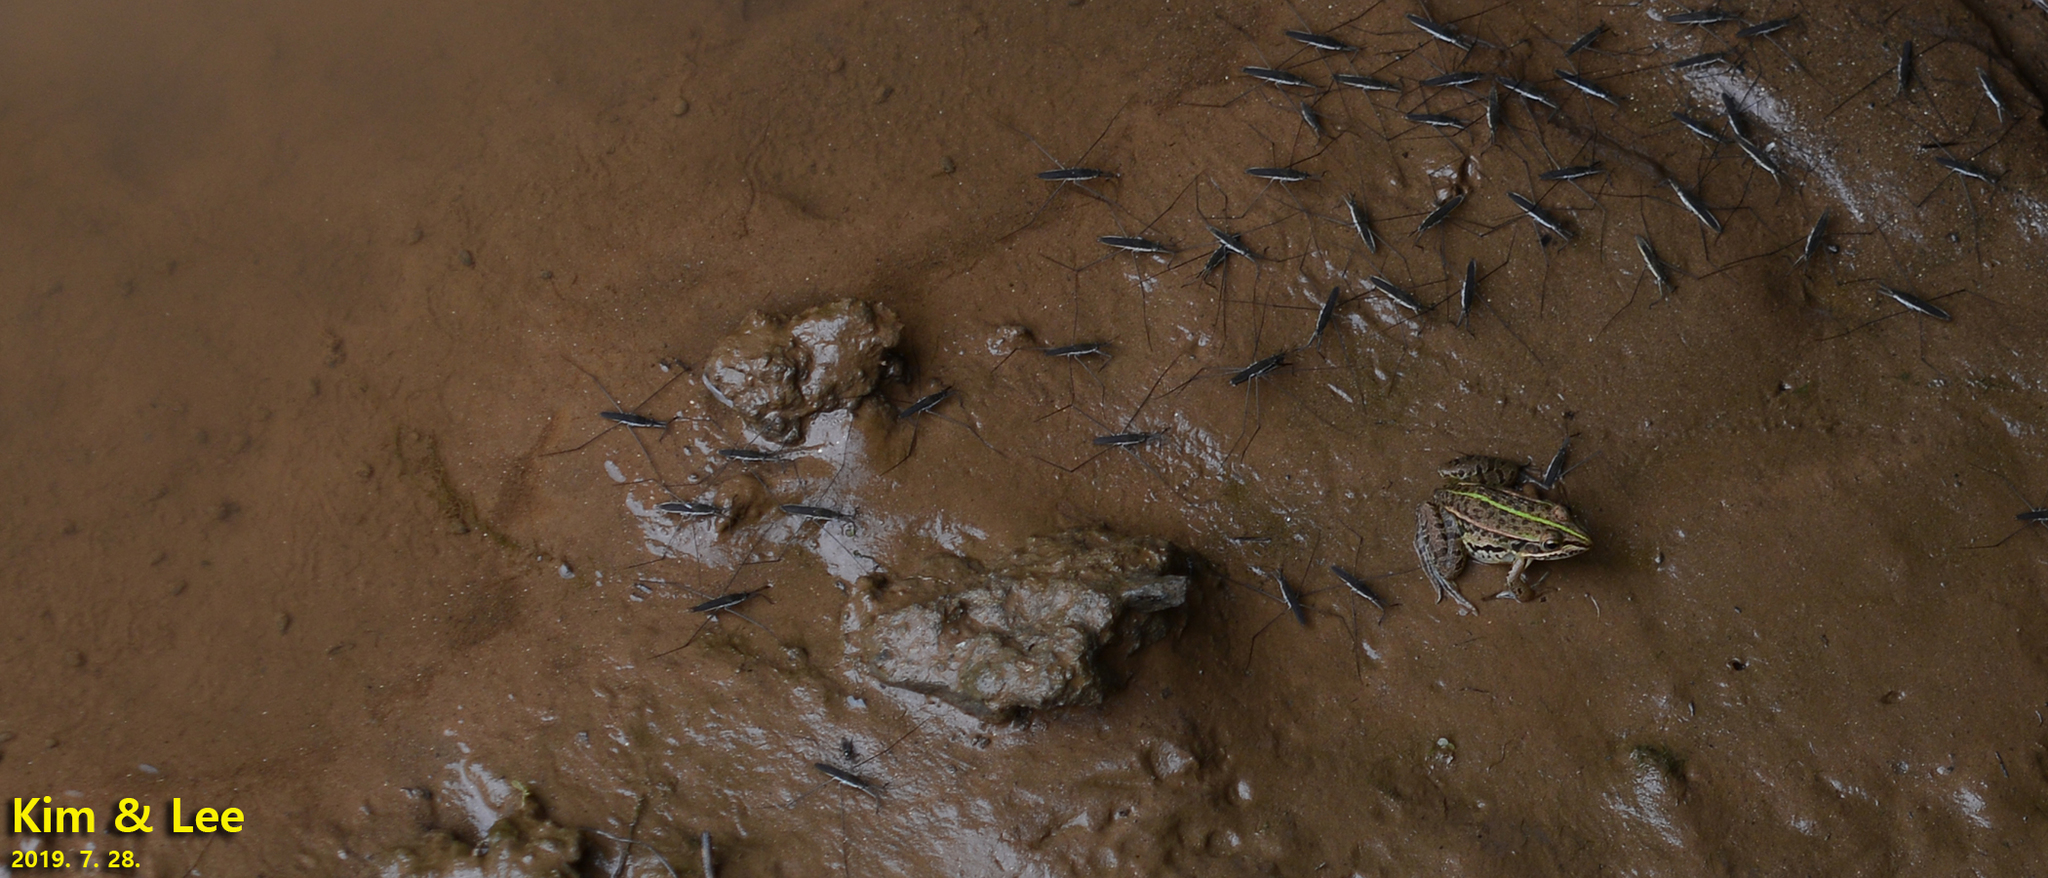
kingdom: Animalia
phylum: Chordata
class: Amphibia
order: Anura
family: Ranidae
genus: Pelophylax
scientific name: Pelophylax nigromaculatus
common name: Black-spotted pond frog
